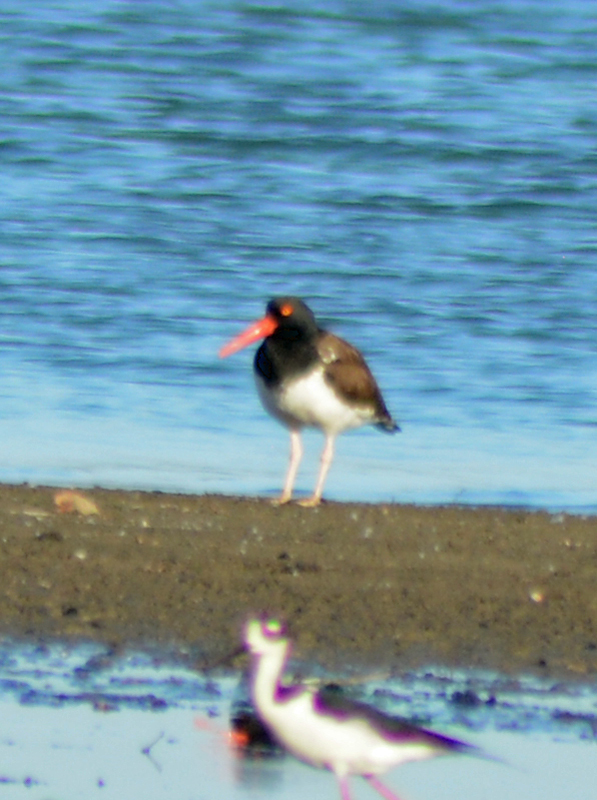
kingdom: Animalia
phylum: Chordata
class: Aves
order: Charadriiformes
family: Haematopodidae
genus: Haematopus
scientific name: Haematopus palliatus
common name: American oystercatcher
